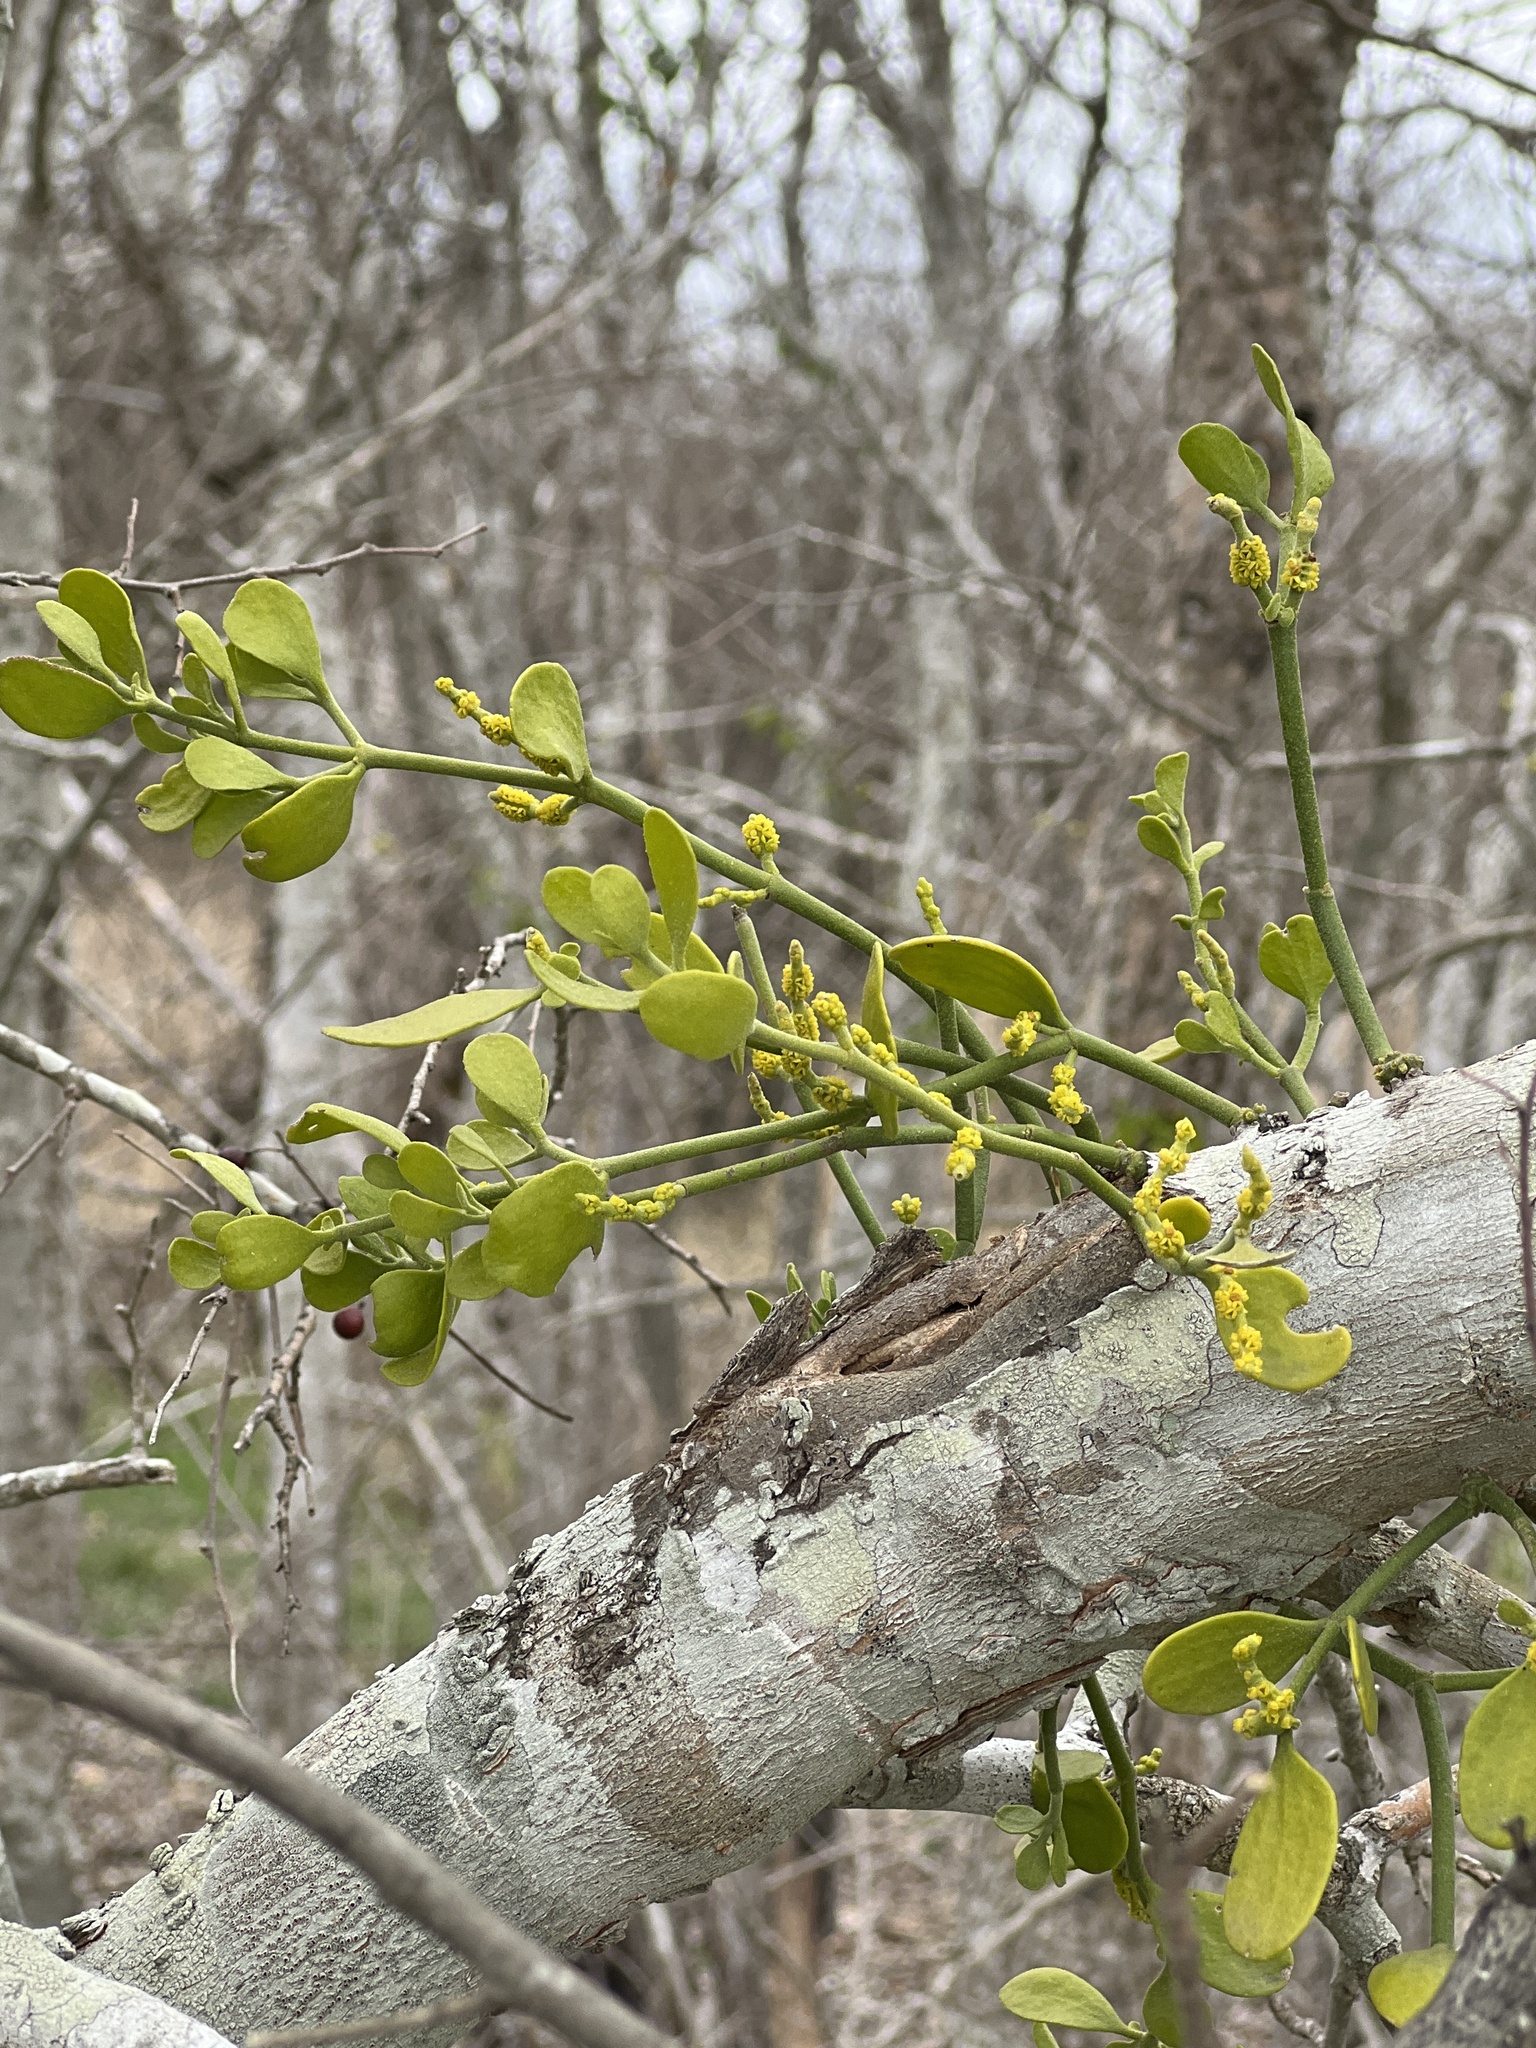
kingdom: Plantae
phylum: Tracheophyta
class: Magnoliopsida
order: Santalales
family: Viscaceae
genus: Phoradendron
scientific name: Phoradendron leucarpum
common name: Pacific mistletoe
